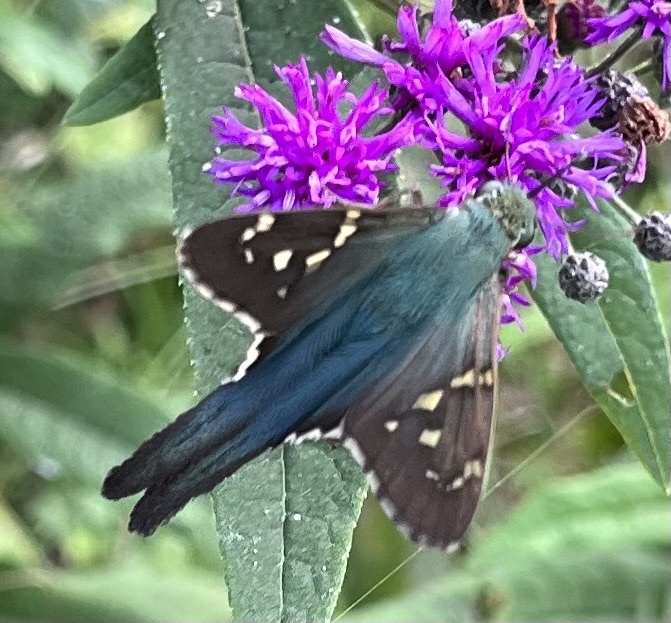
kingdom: Animalia
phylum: Arthropoda
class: Insecta
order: Lepidoptera
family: Hesperiidae
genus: Urbanus
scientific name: Urbanus proteus
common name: Long-tailed skipper
